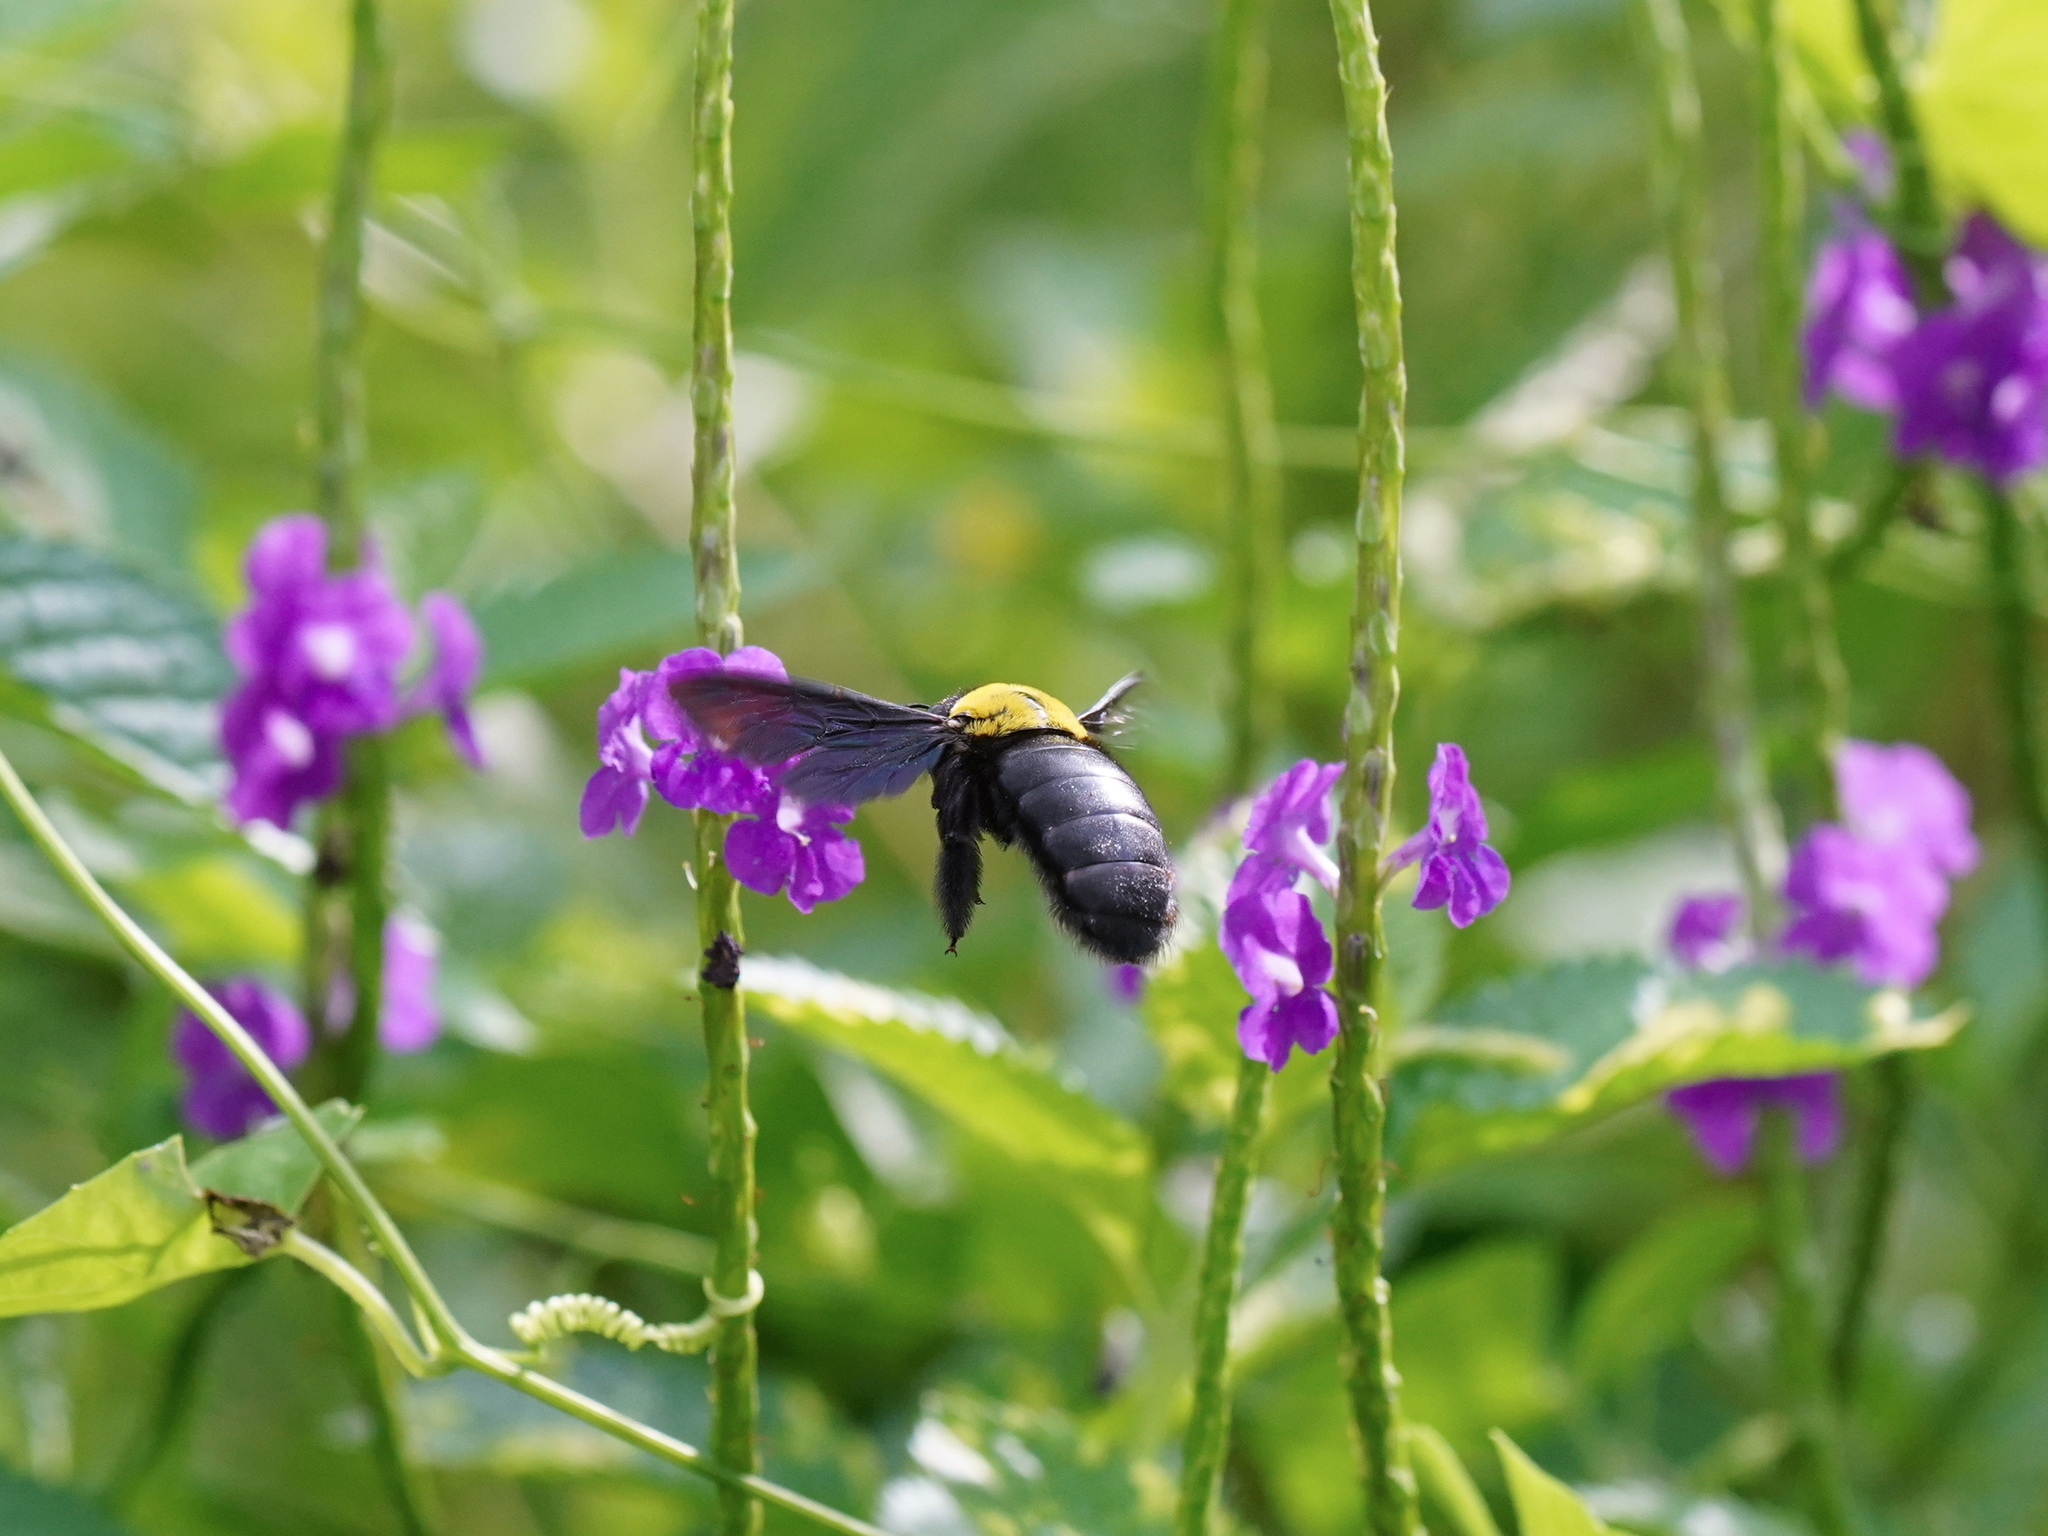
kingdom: Animalia
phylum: Arthropoda
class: Insecta
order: Hymenoptera
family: Apidae
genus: Xylocopa
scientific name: Xylocopa aestuans
